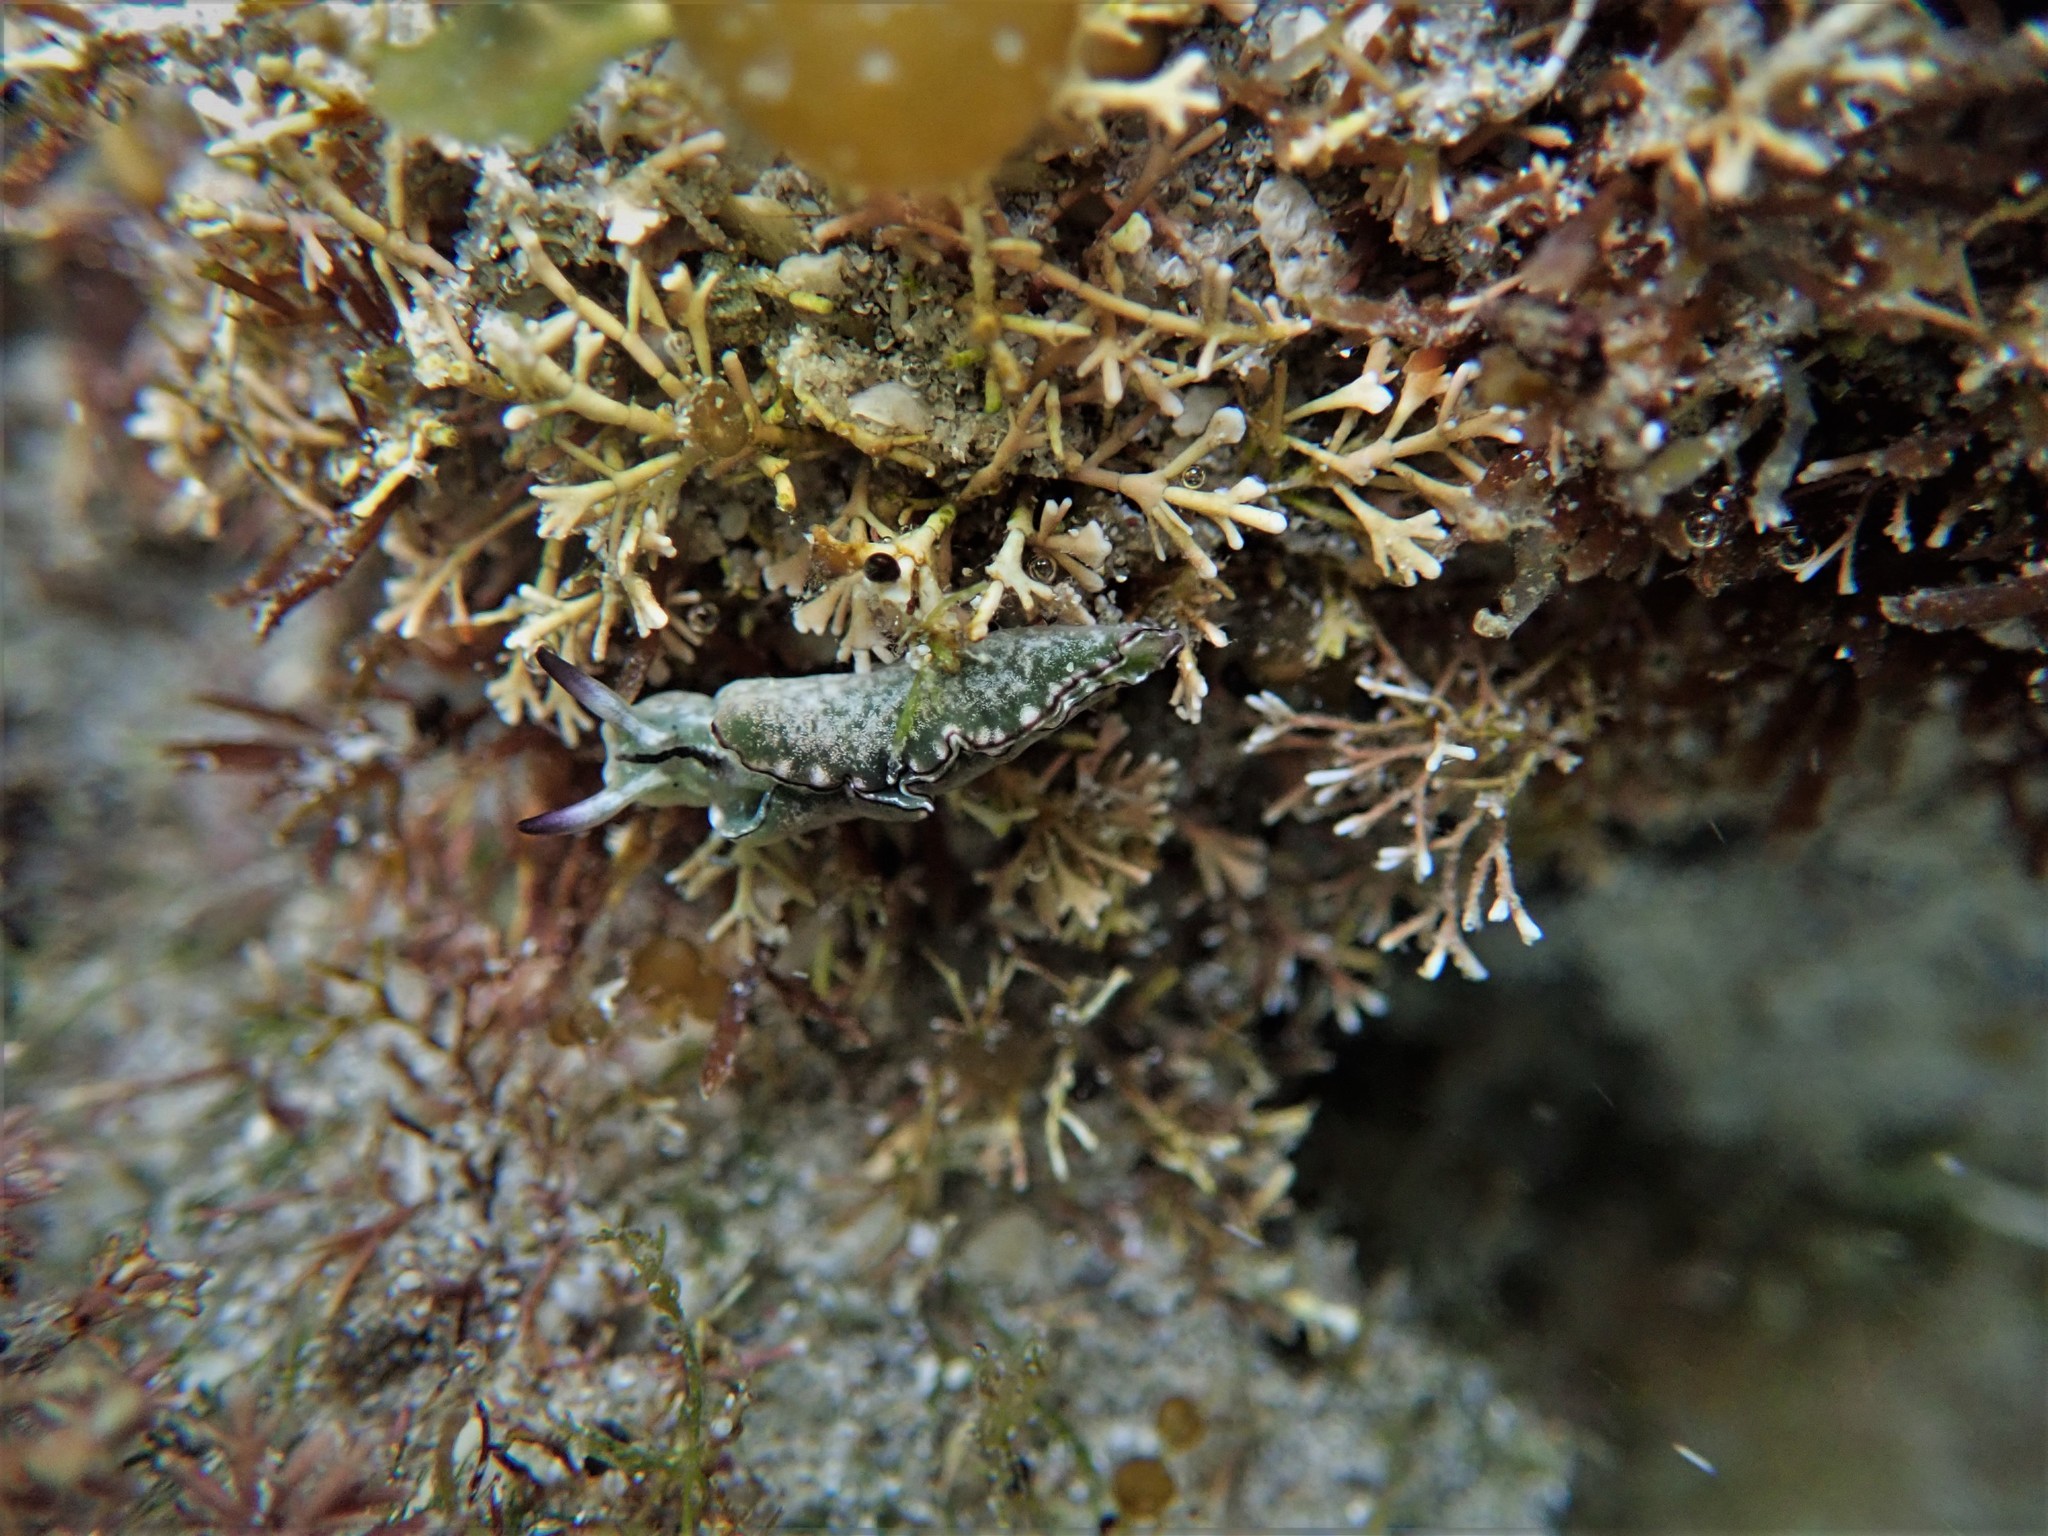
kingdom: Animalia
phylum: Mollusca
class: Gastropoda
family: Plakobranchidae
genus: Elysia
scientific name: Elysia coodgeensis
